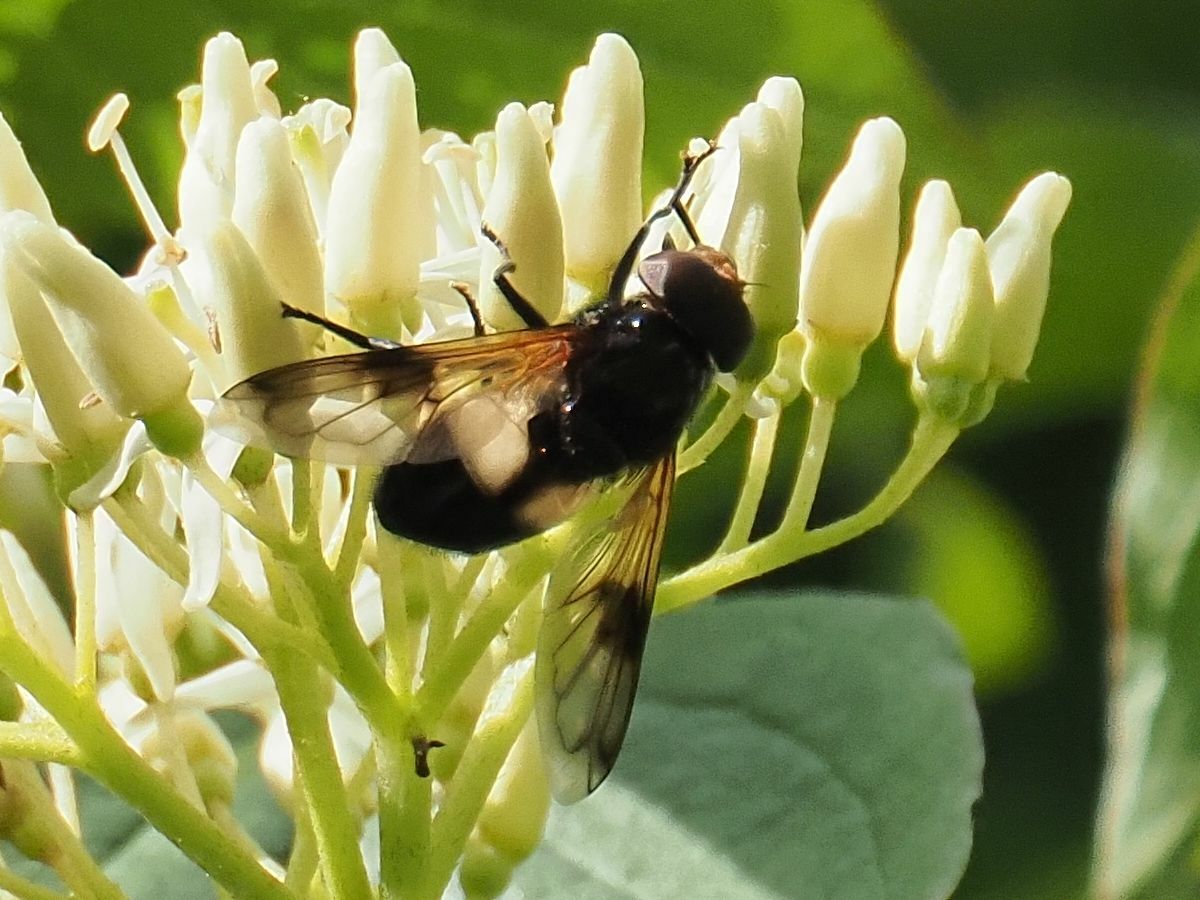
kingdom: Animalia
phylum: Arthropoda
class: Insecta
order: Diptera
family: Syrphidae
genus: Volucella
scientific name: Volucella pellucens
